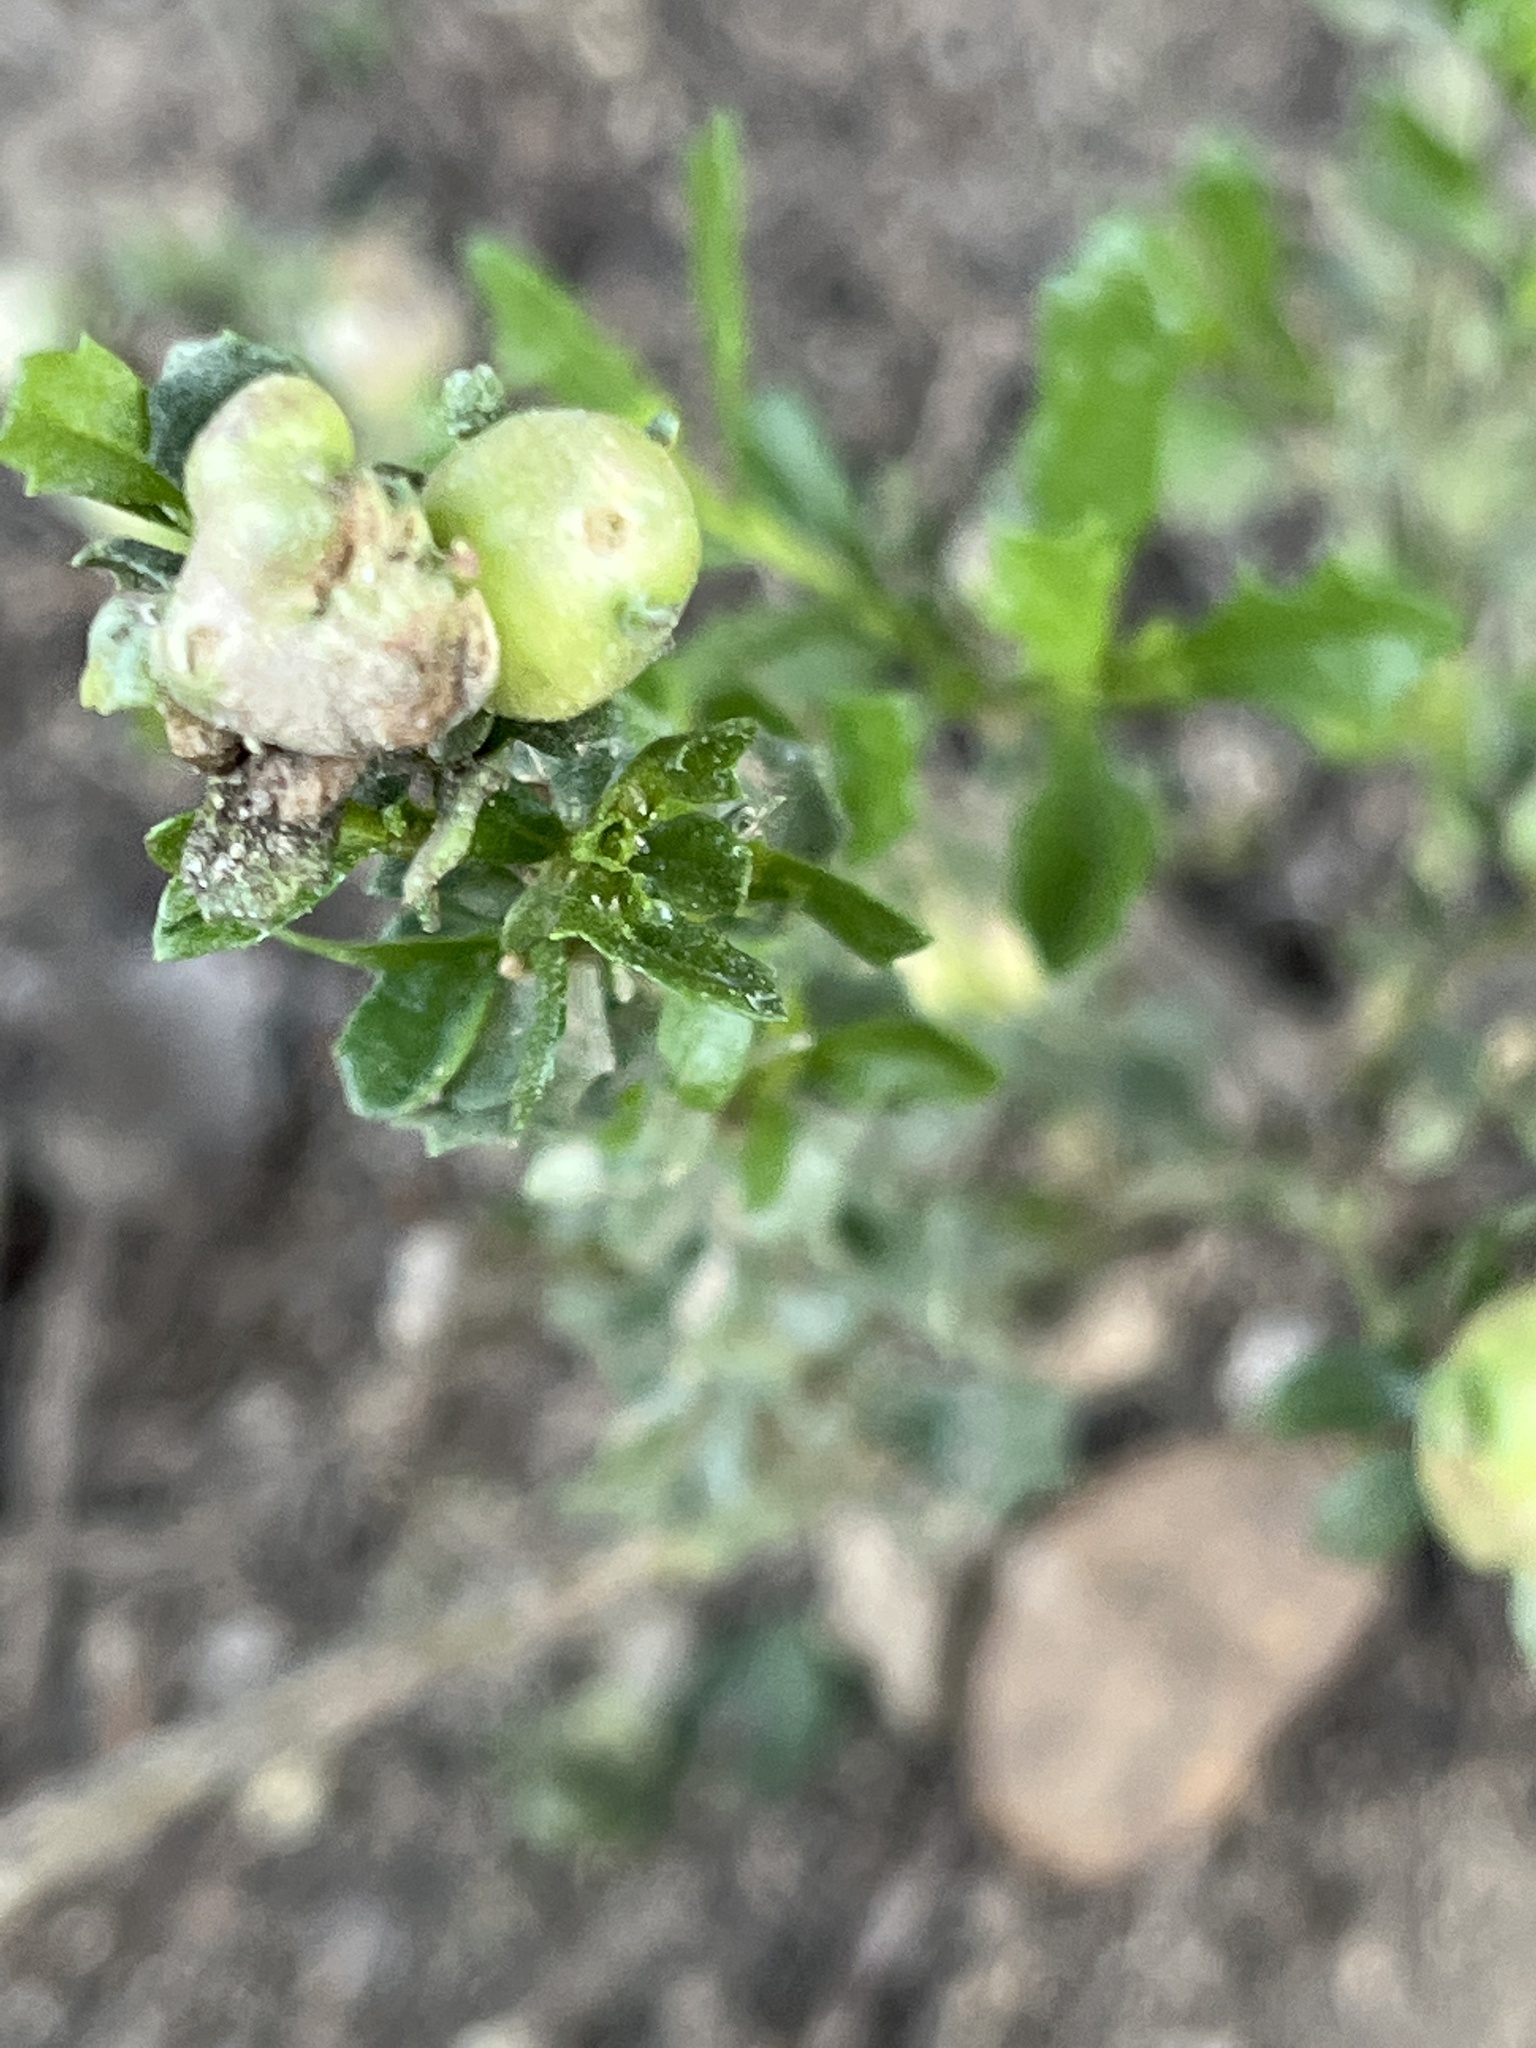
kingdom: Animalia
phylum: Arthropoda
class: Insecta
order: Diptera
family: Cecidomyiidae
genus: Rhopalomyia
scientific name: Rhopalomyia californica
